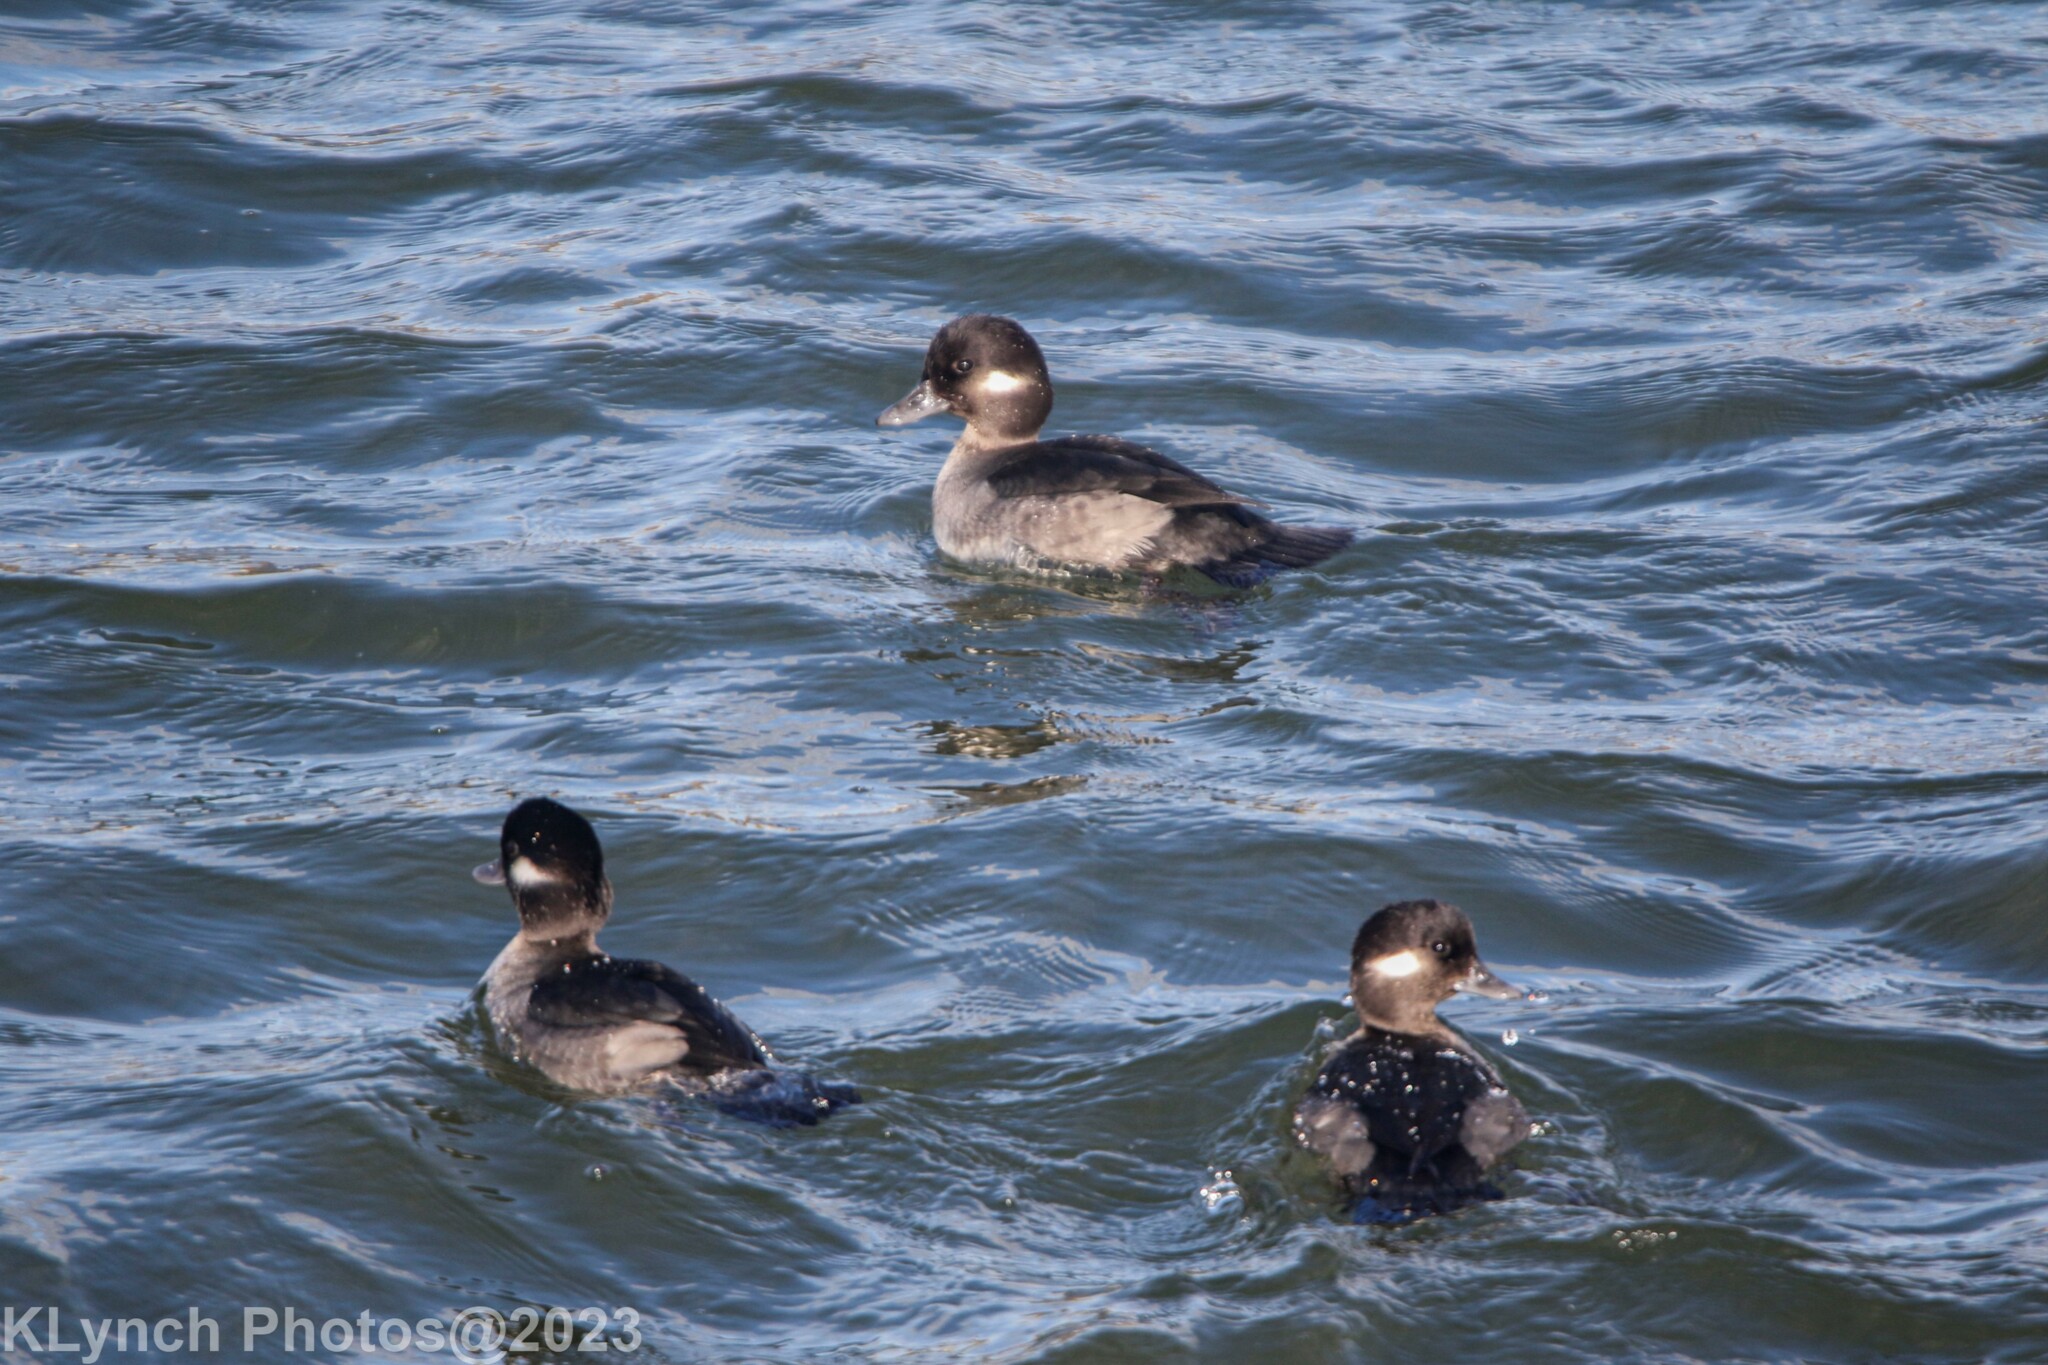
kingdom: Animalia
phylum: Chordata
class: Aves
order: Anseriformes
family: Anatidae
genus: Bucephala
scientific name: Bucephala albeola
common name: Bufflehead
